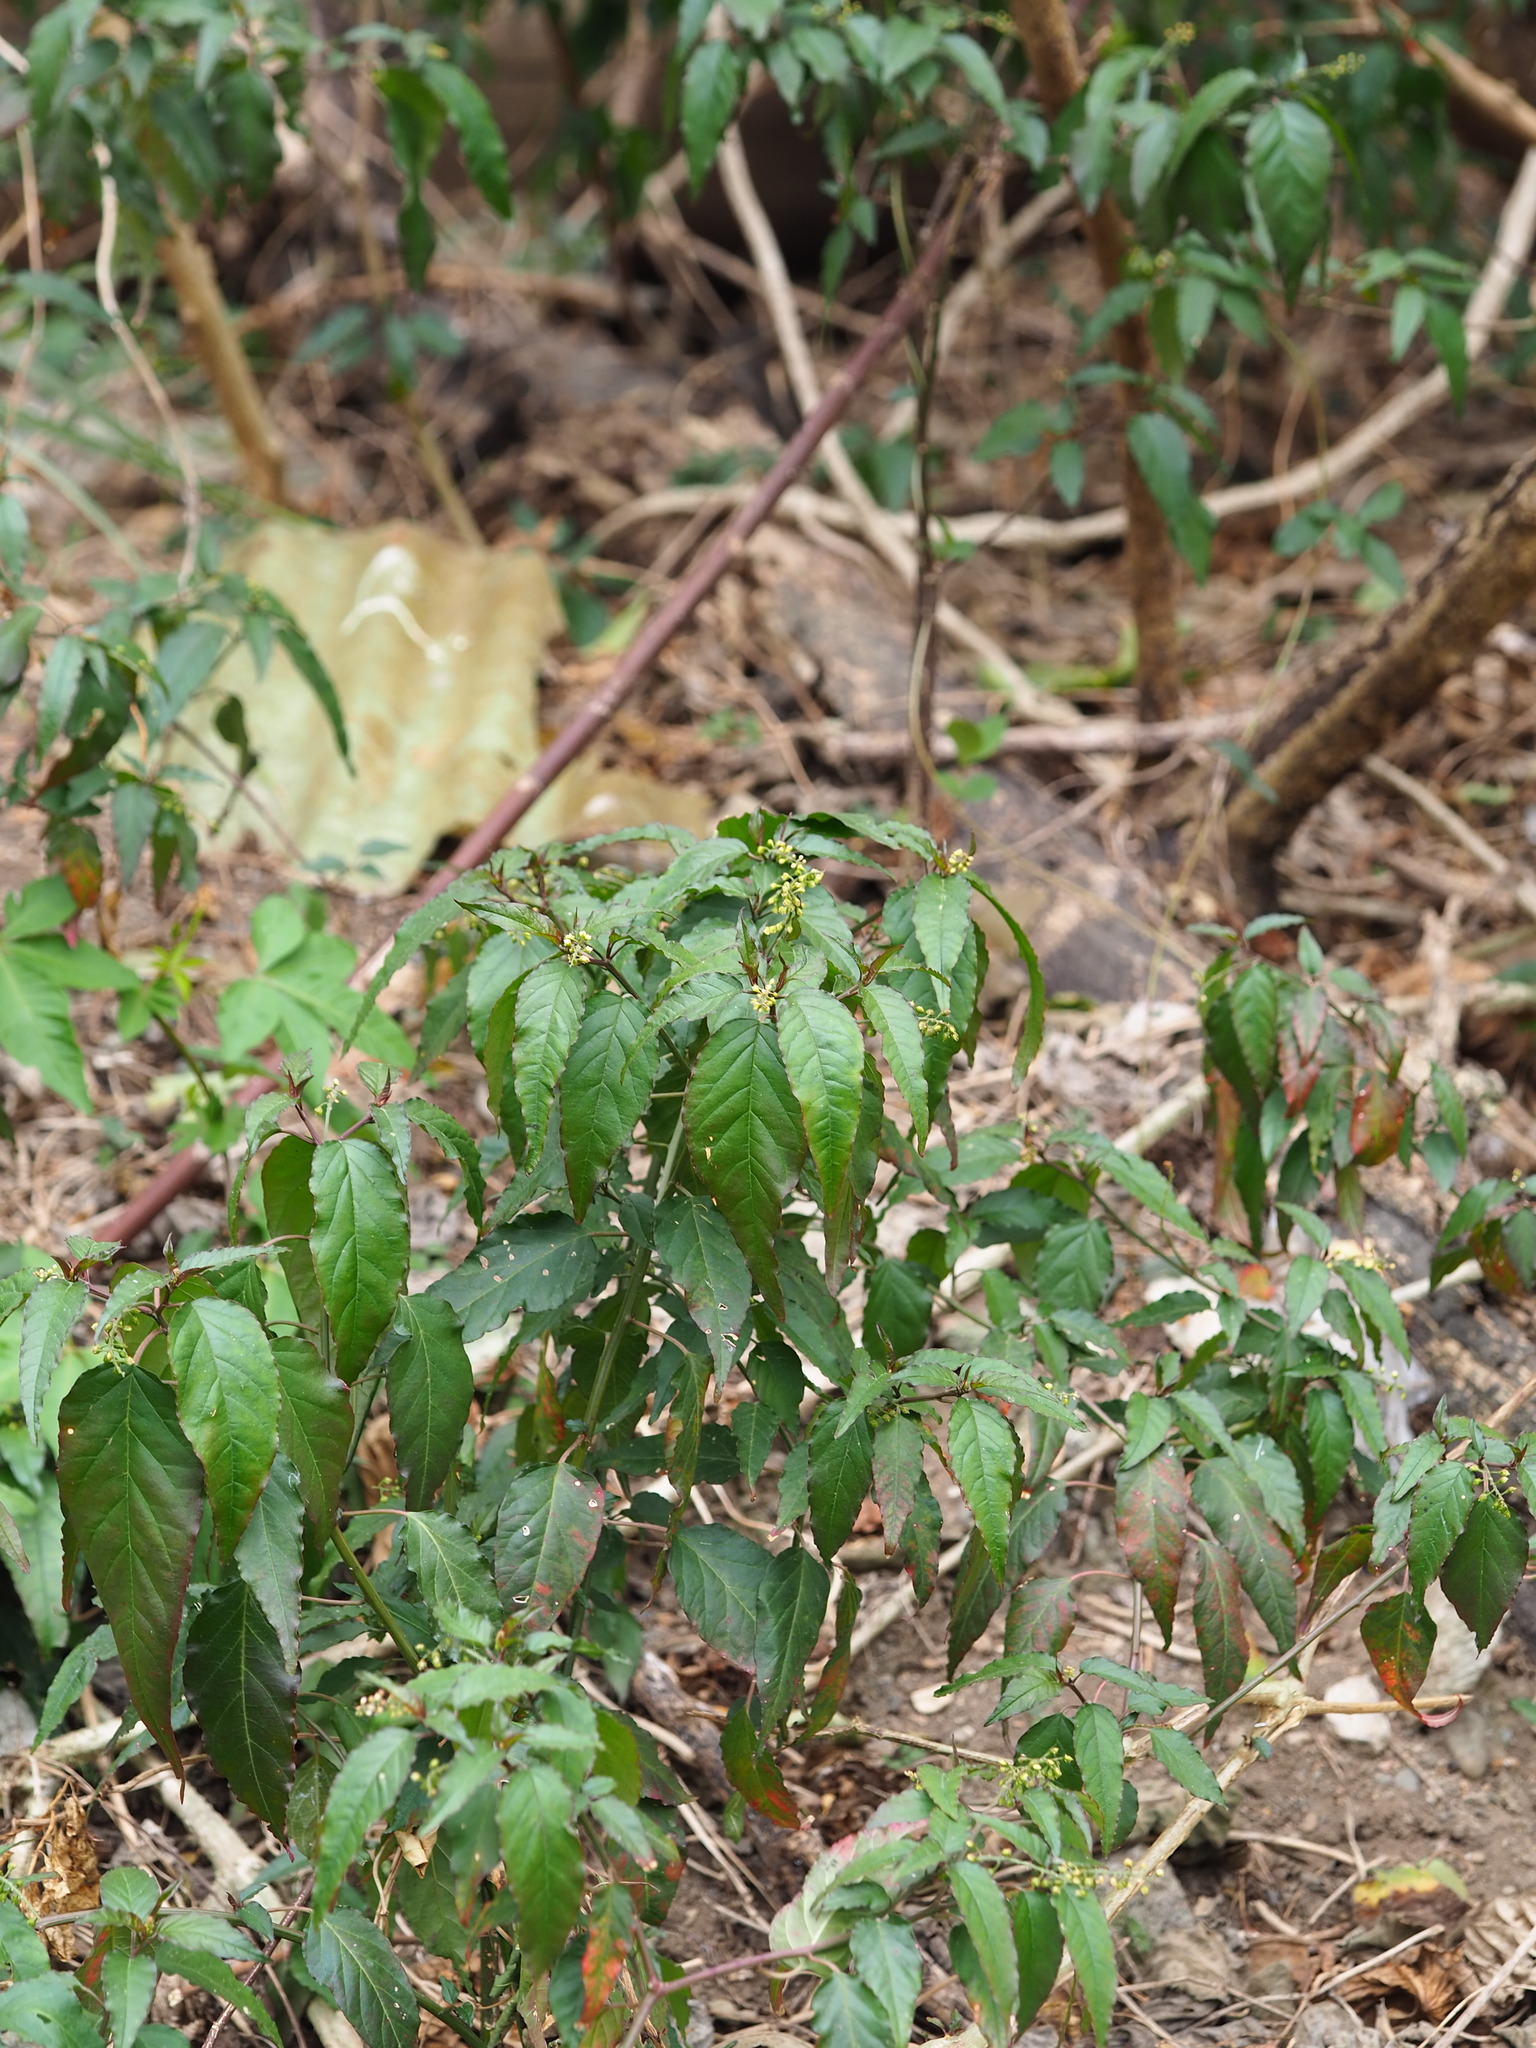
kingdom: Plantae
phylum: Tracheophyta
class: Magnoliopsida
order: Caryophyllales
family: Phytolaccaceae
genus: Rivina
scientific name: Rivina humilis
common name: Rougeplant
